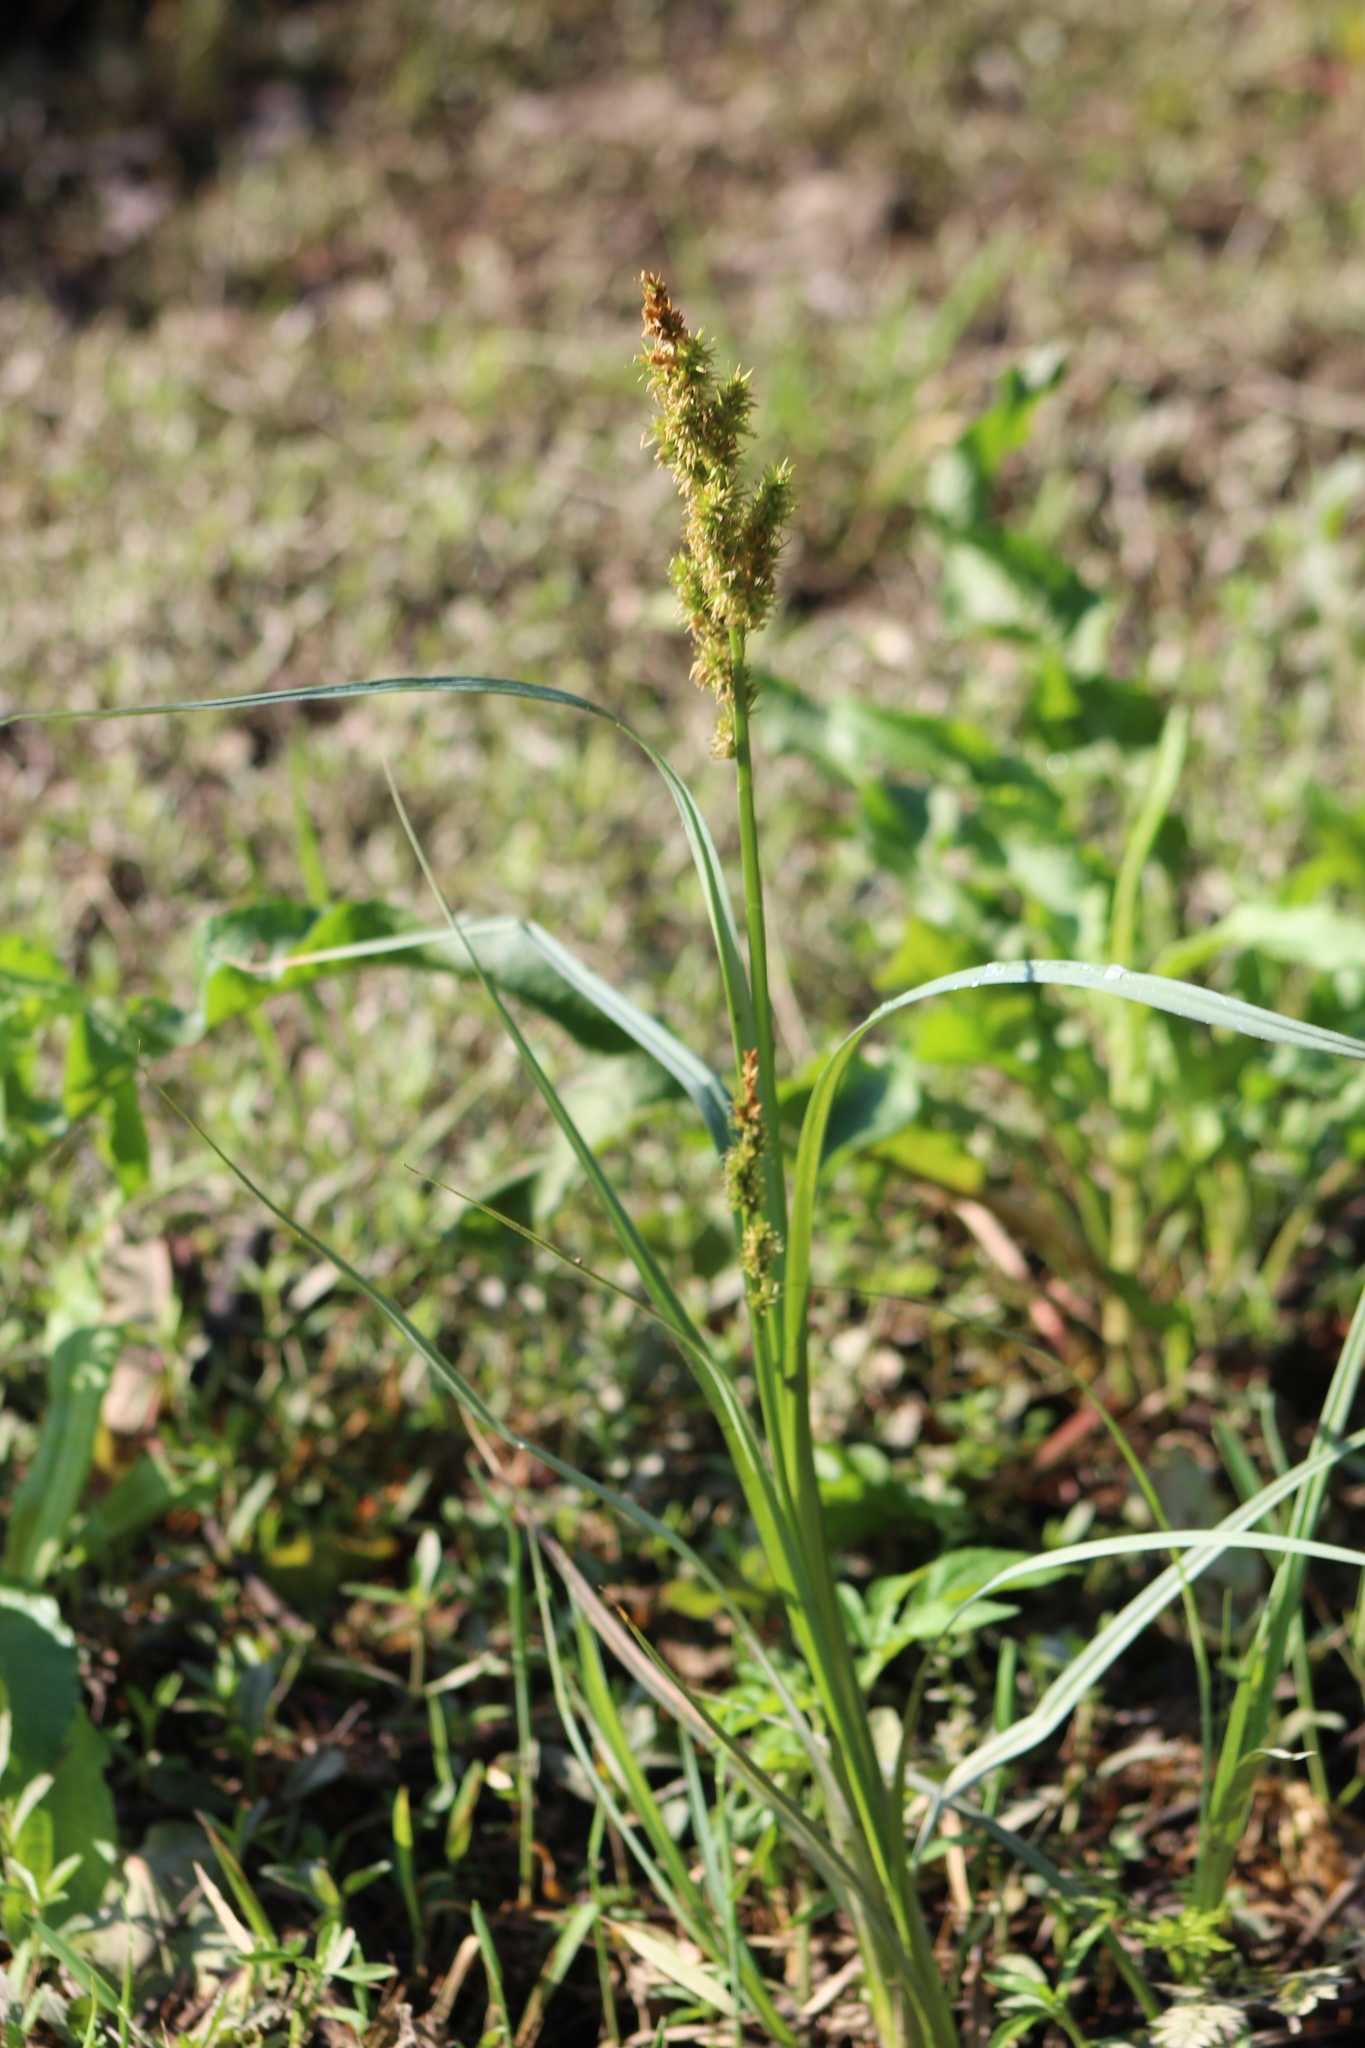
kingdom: Plantae
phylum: Tracheophyta
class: Liliopsida
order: Poales
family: Cyperaceae
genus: Carex
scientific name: Carex crus-corvi
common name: Crow-spur sedge
